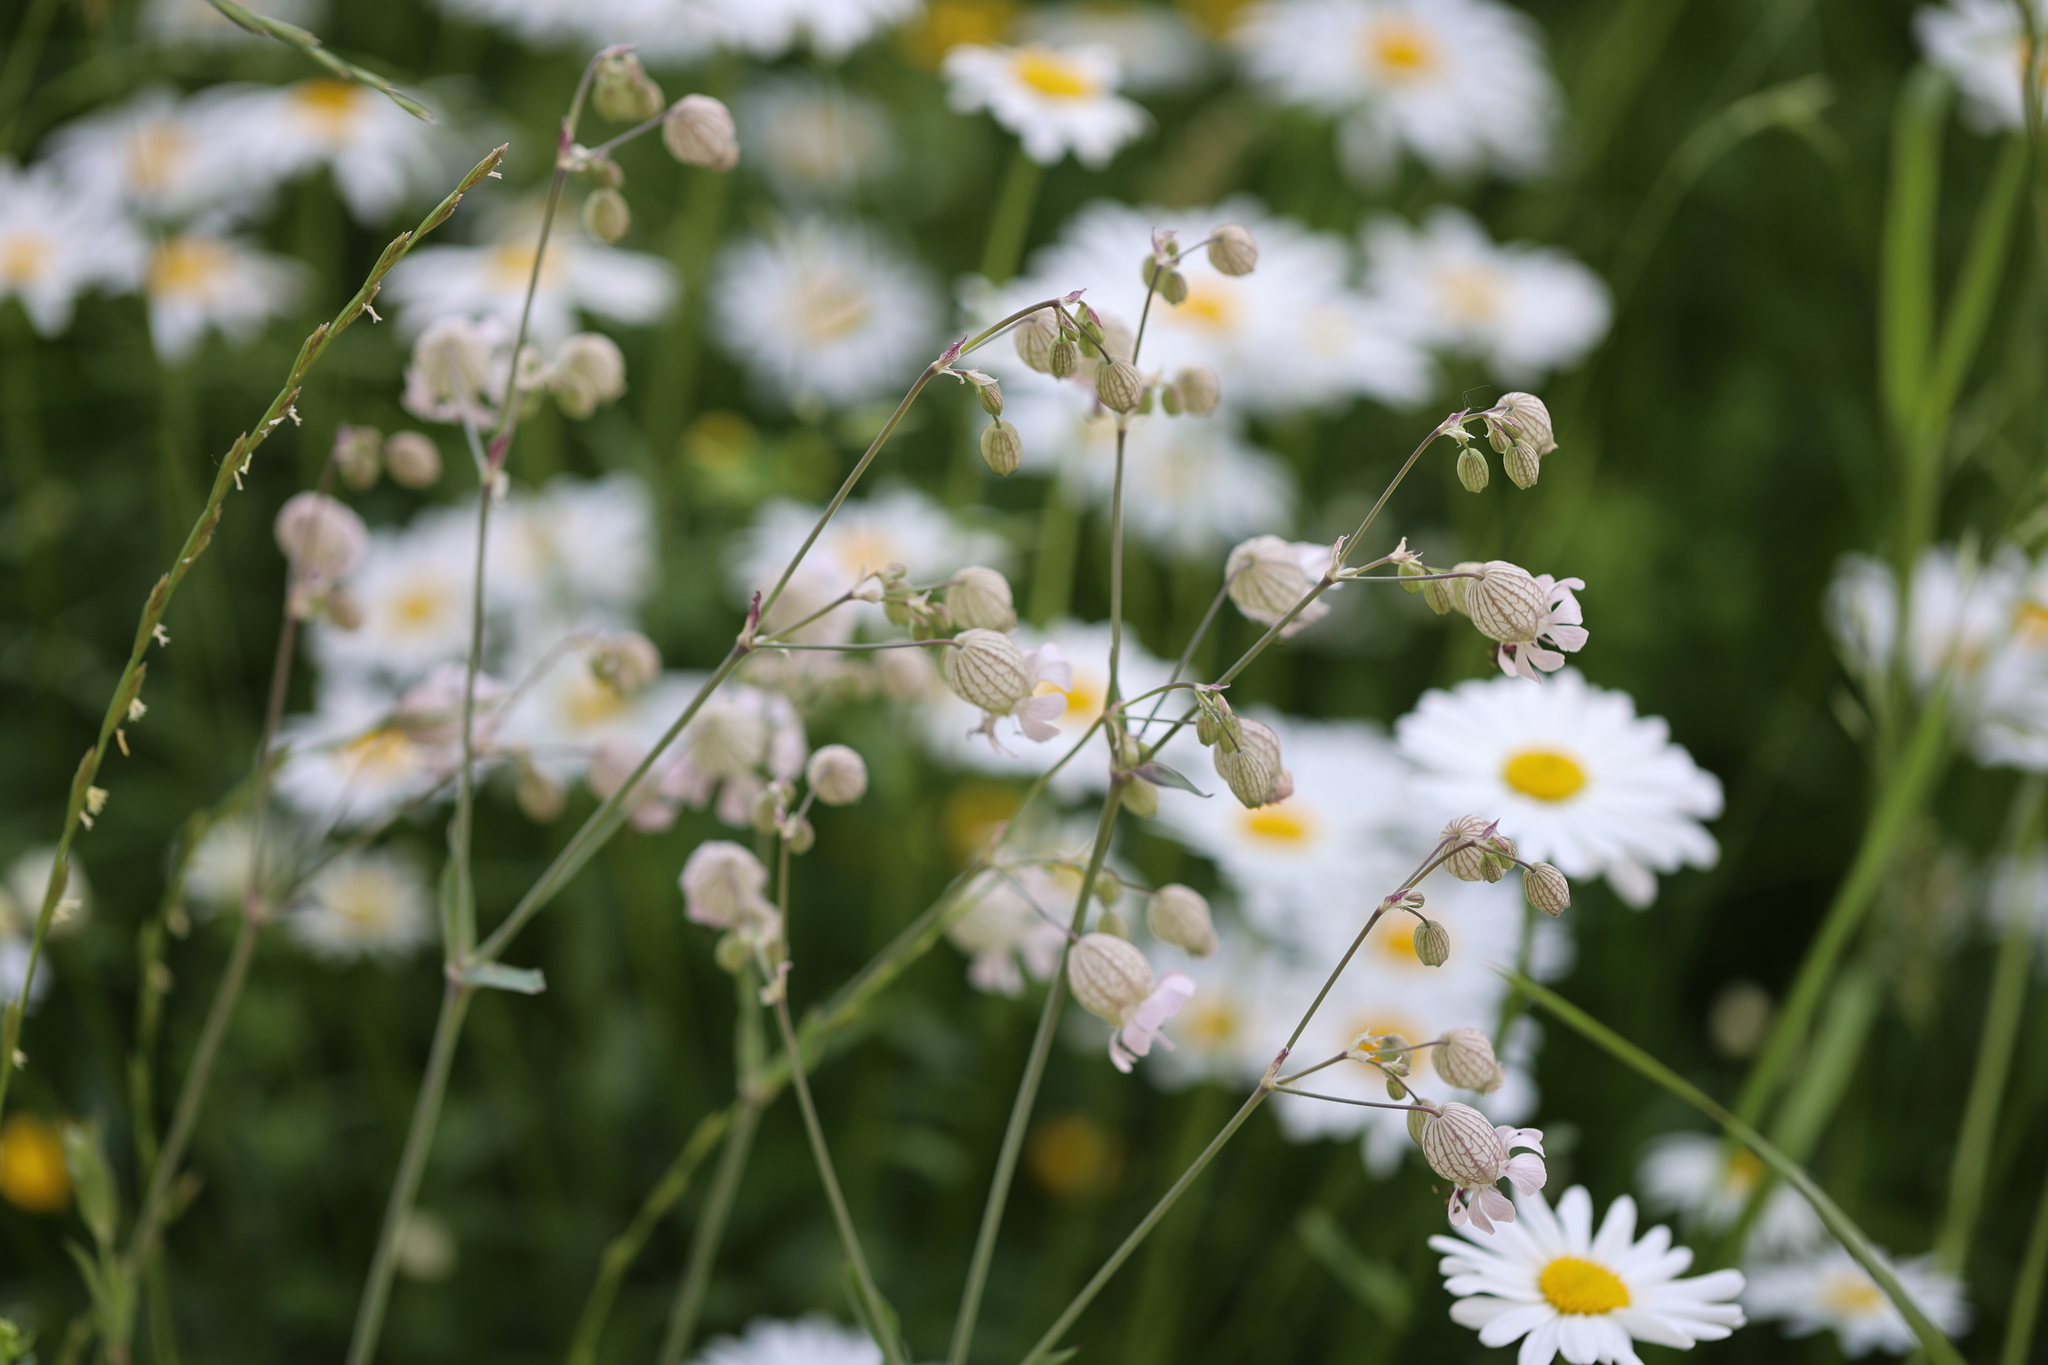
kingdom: Plantae
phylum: Tracheophyta
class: Magnoliopsida
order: Caryophyllales
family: Caryophyllaceae
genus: Silene
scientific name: Silene vulgaris
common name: Bladder campion
